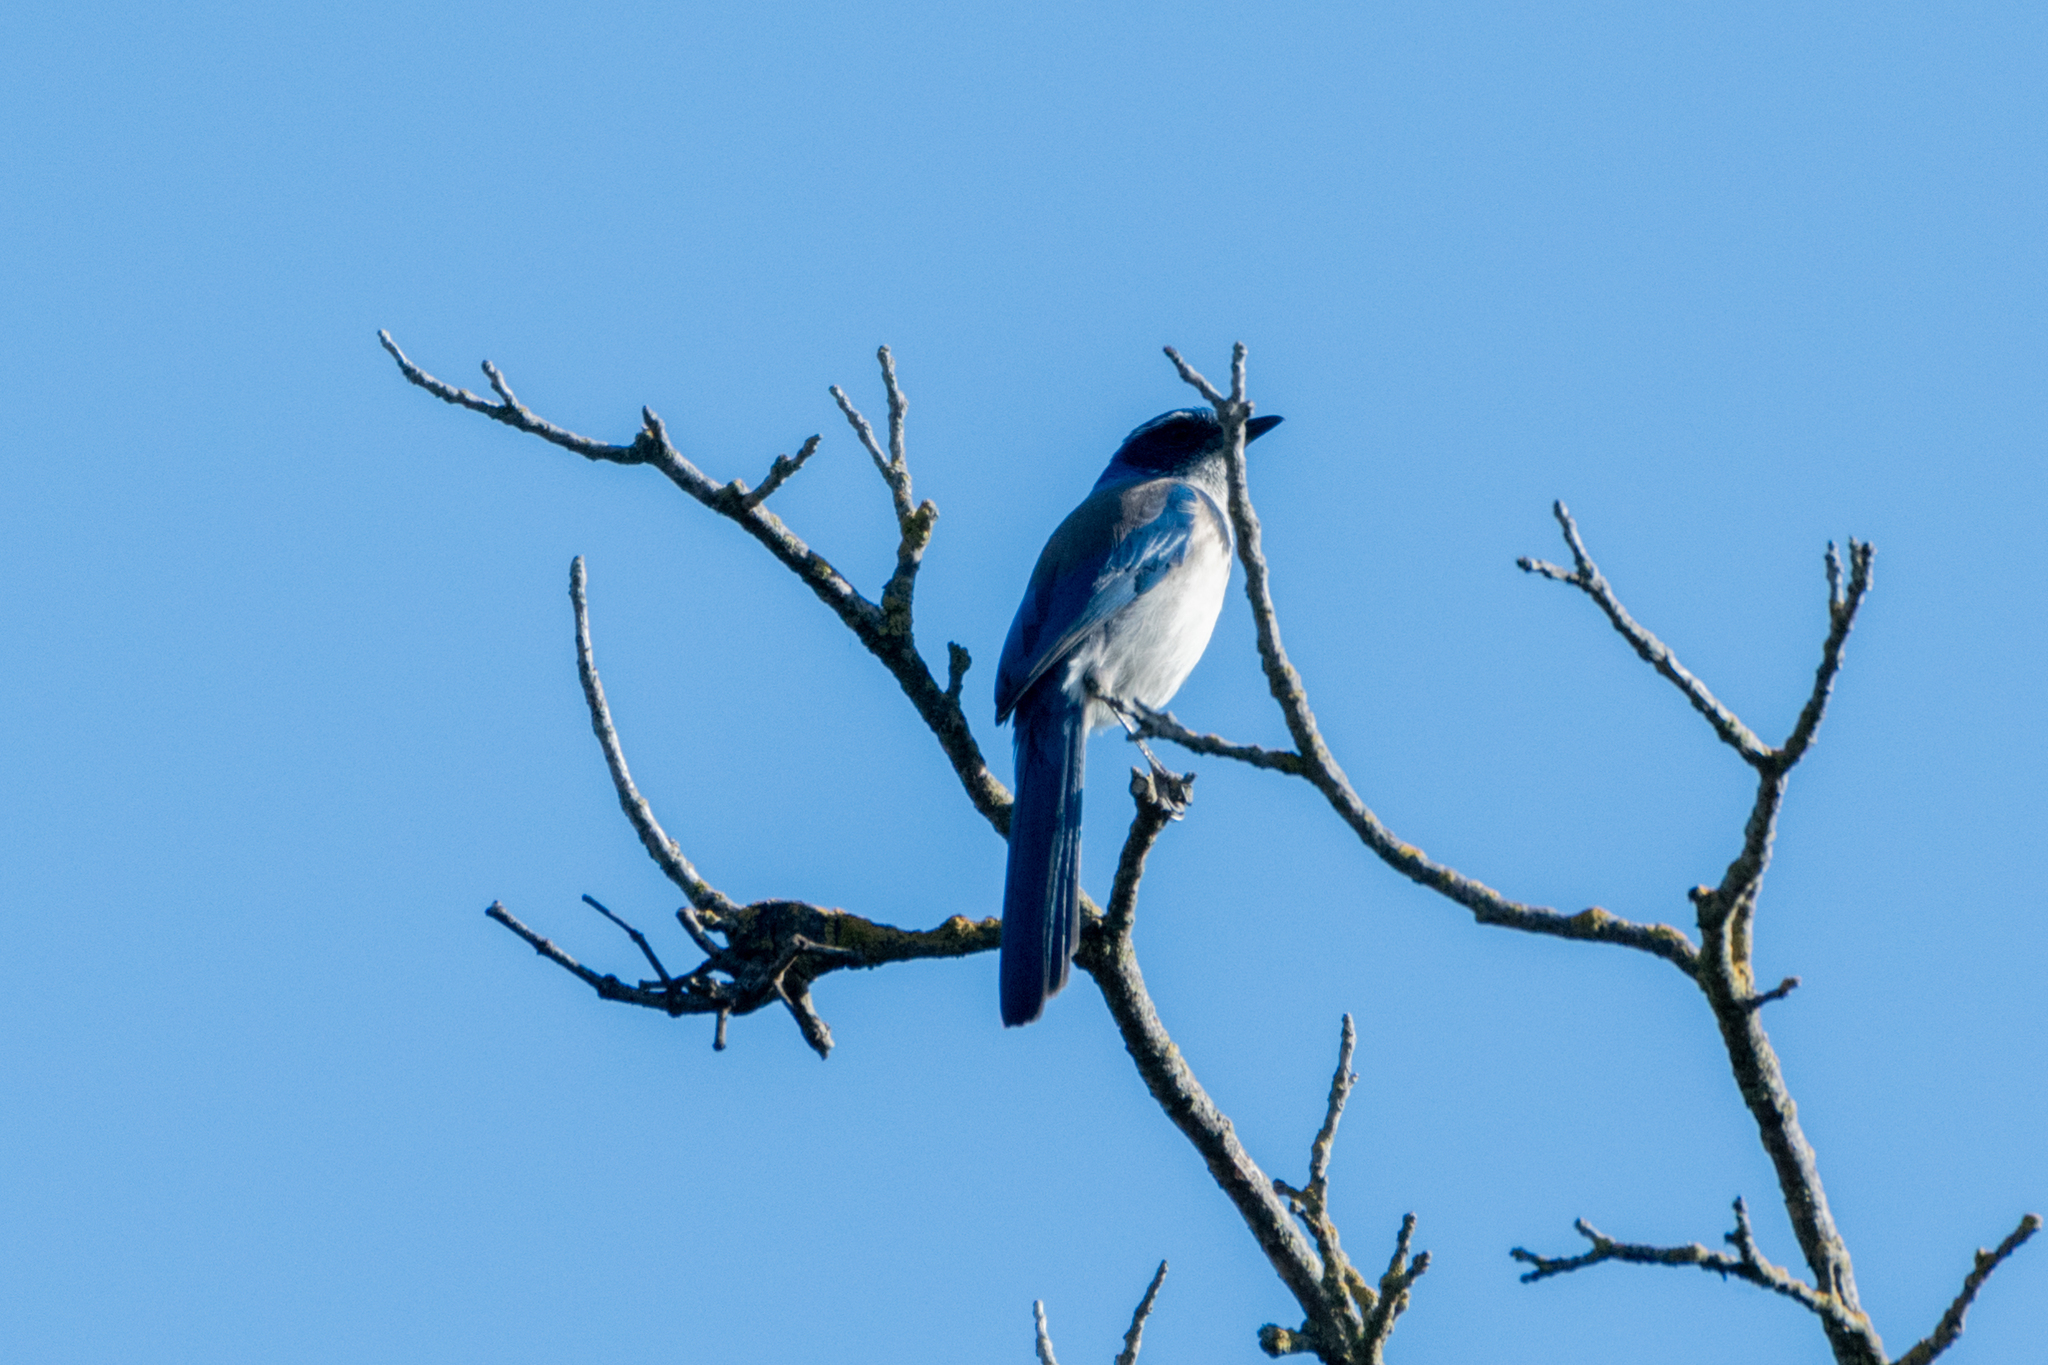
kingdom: Animalia
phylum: Chordata
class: Aves
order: Passeriformes
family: Corvidae
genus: Aphelocoma
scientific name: Aphelocoma californica
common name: California scrub-jay
